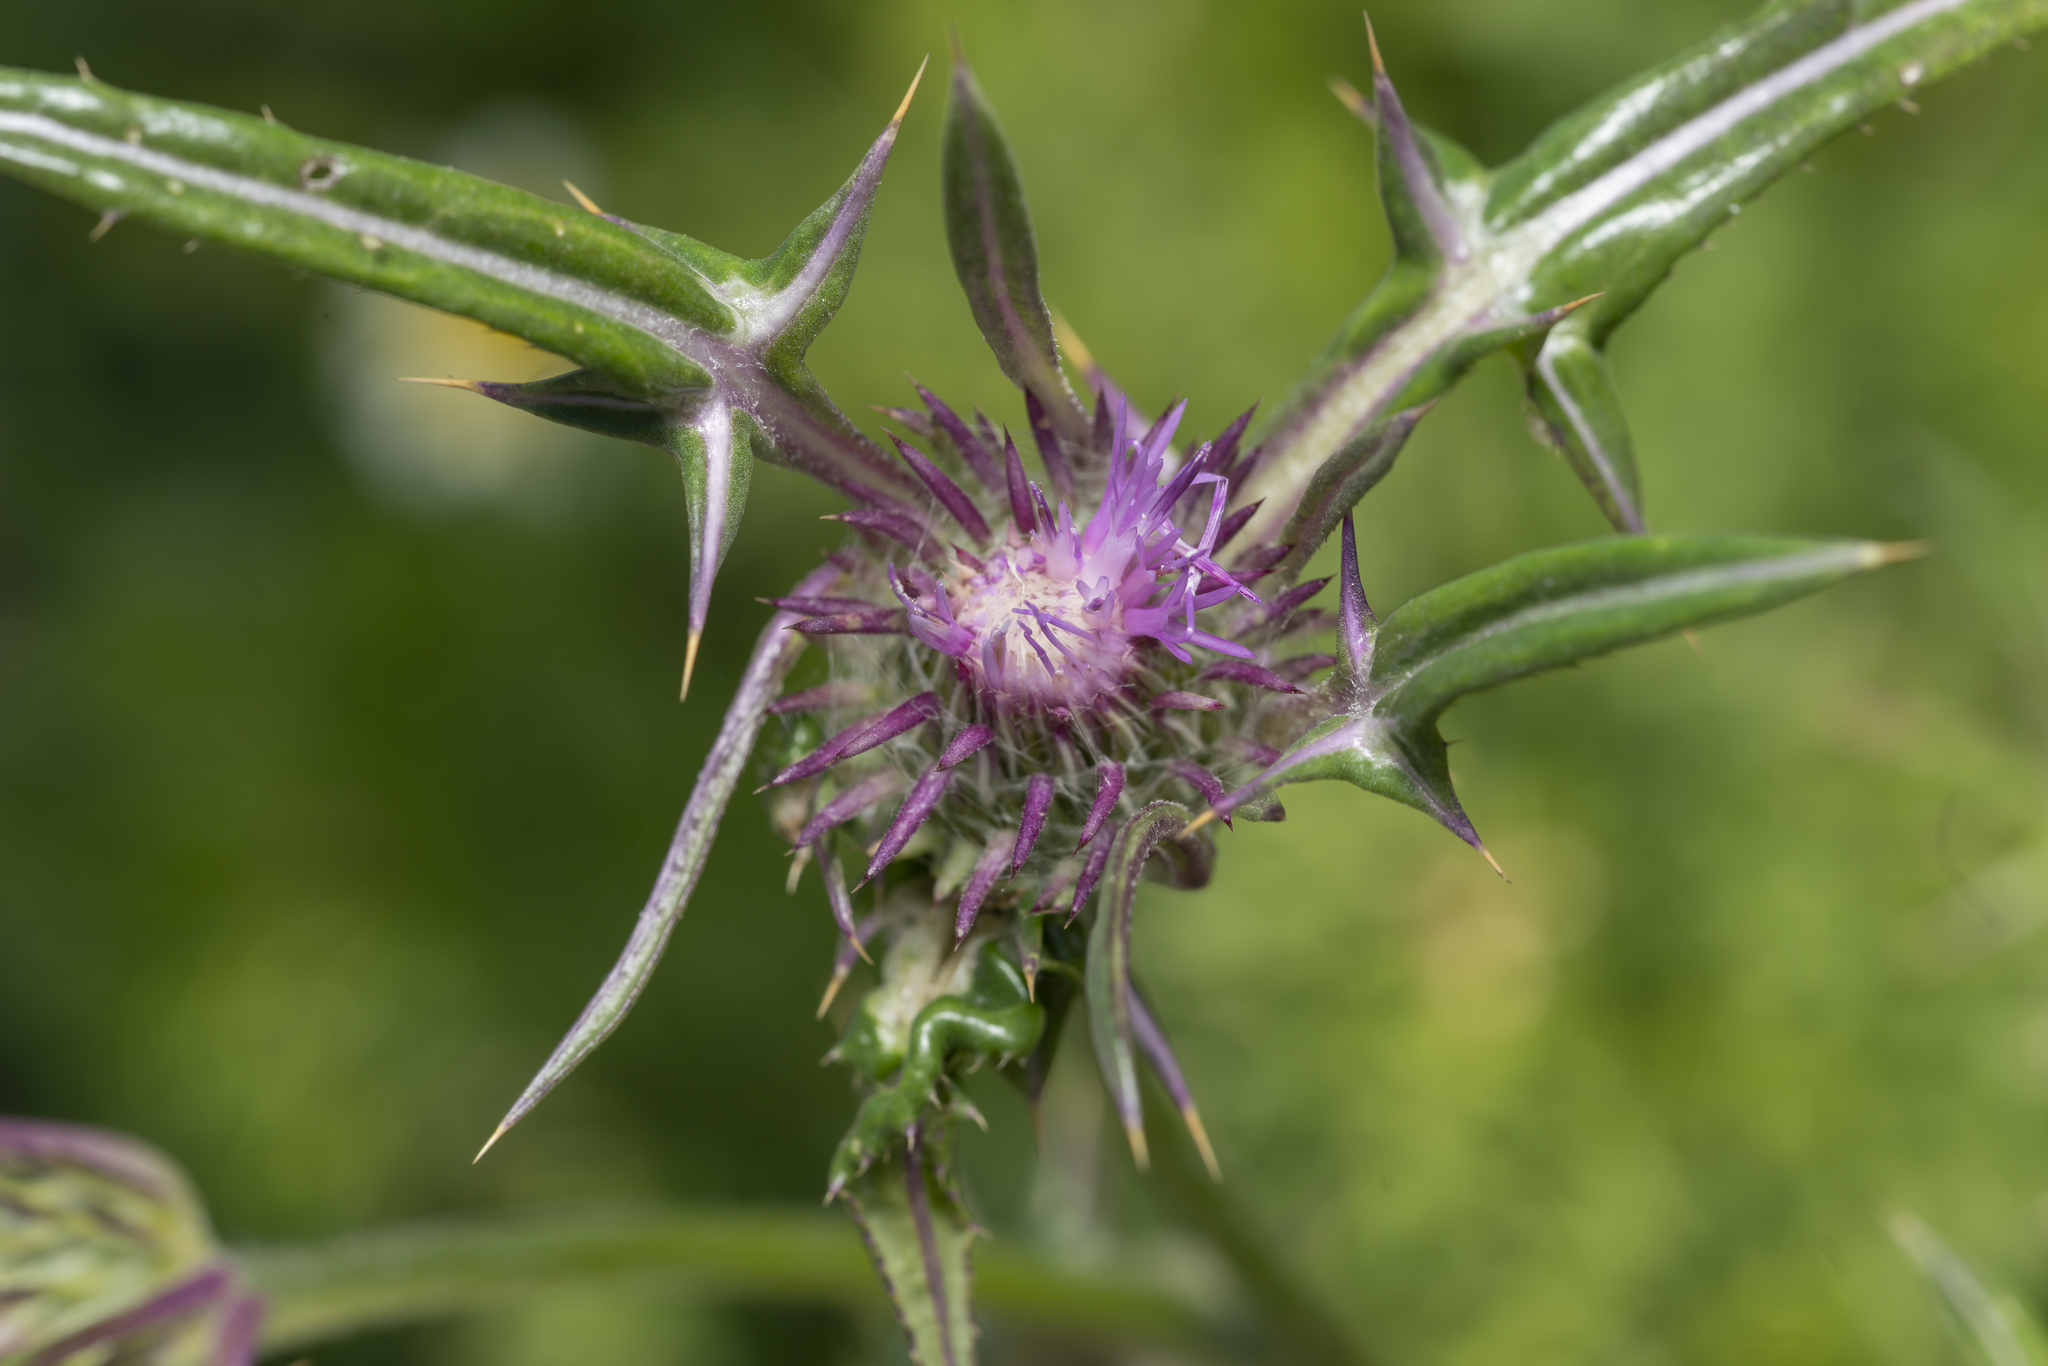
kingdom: Plantae
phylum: Tracheophyta
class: Magnoliopsida
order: Asterales
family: Asteraceae
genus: Notobasis
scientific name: Notobasis syriaca
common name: Syrian thistle
